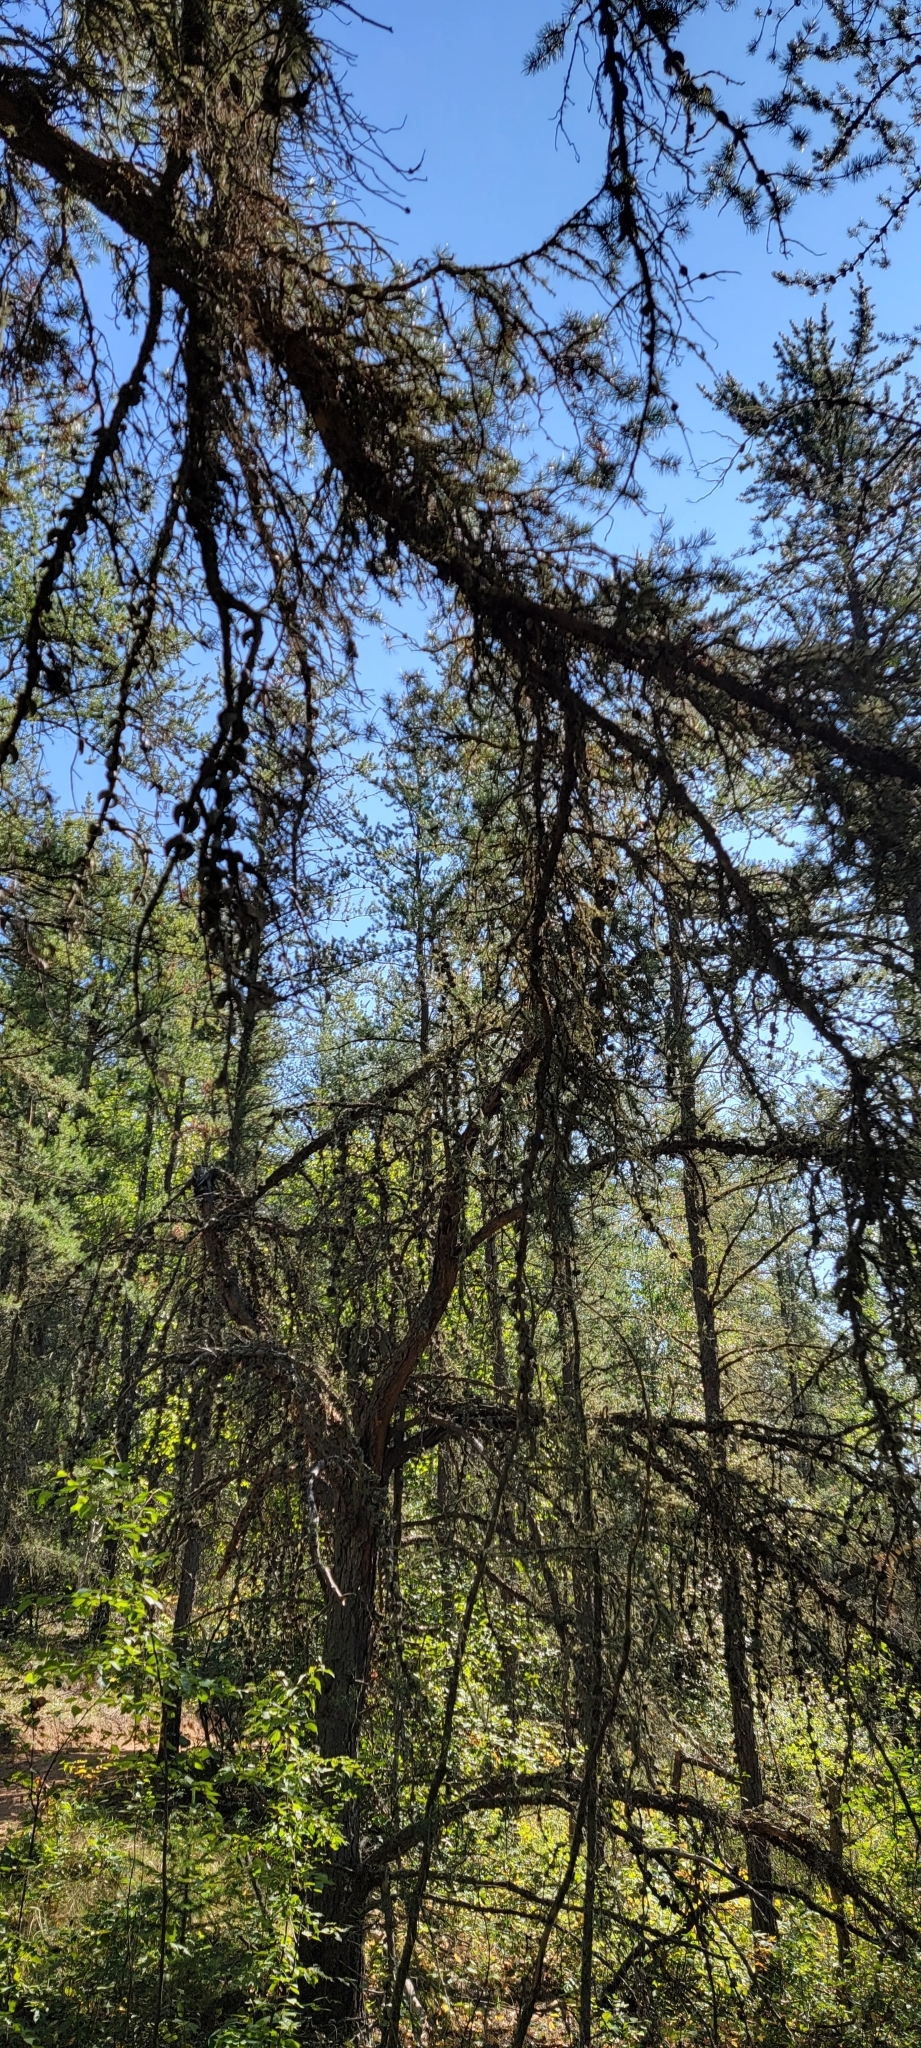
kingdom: Plantae
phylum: Tracheophyta
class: Pinopsida
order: Pinales
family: Pinaceae
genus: Pinus
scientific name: Pinus banksiana
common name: Jack pine
